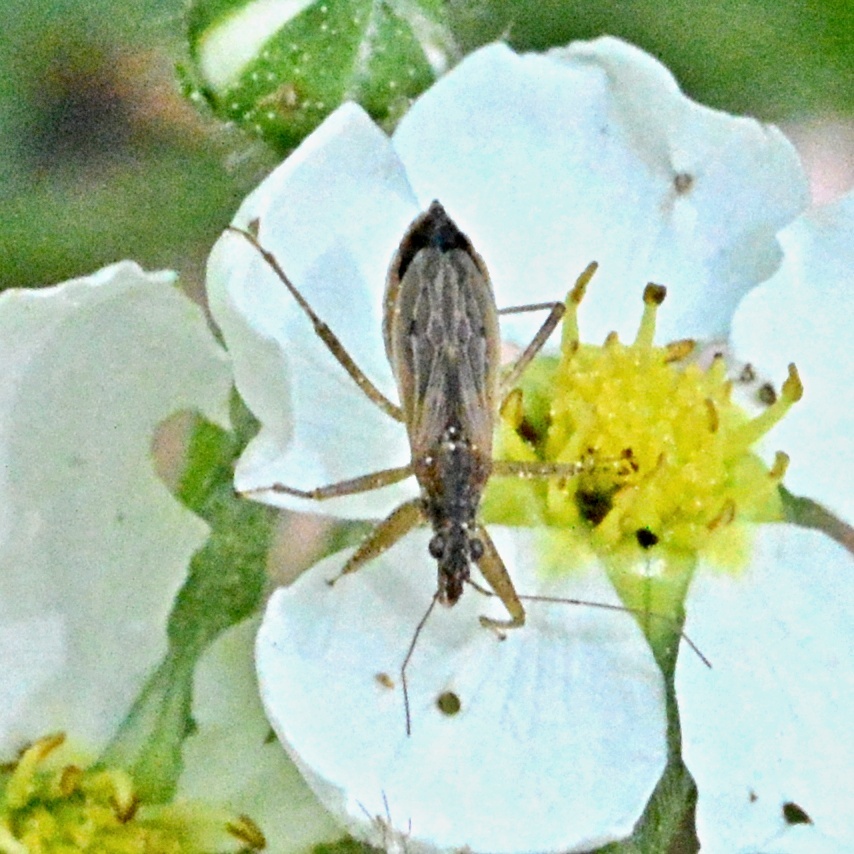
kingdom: Animalia
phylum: Arthropoda
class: Insecta
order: Hemiptera
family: Nabidae
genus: Nabis
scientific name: Nabis
